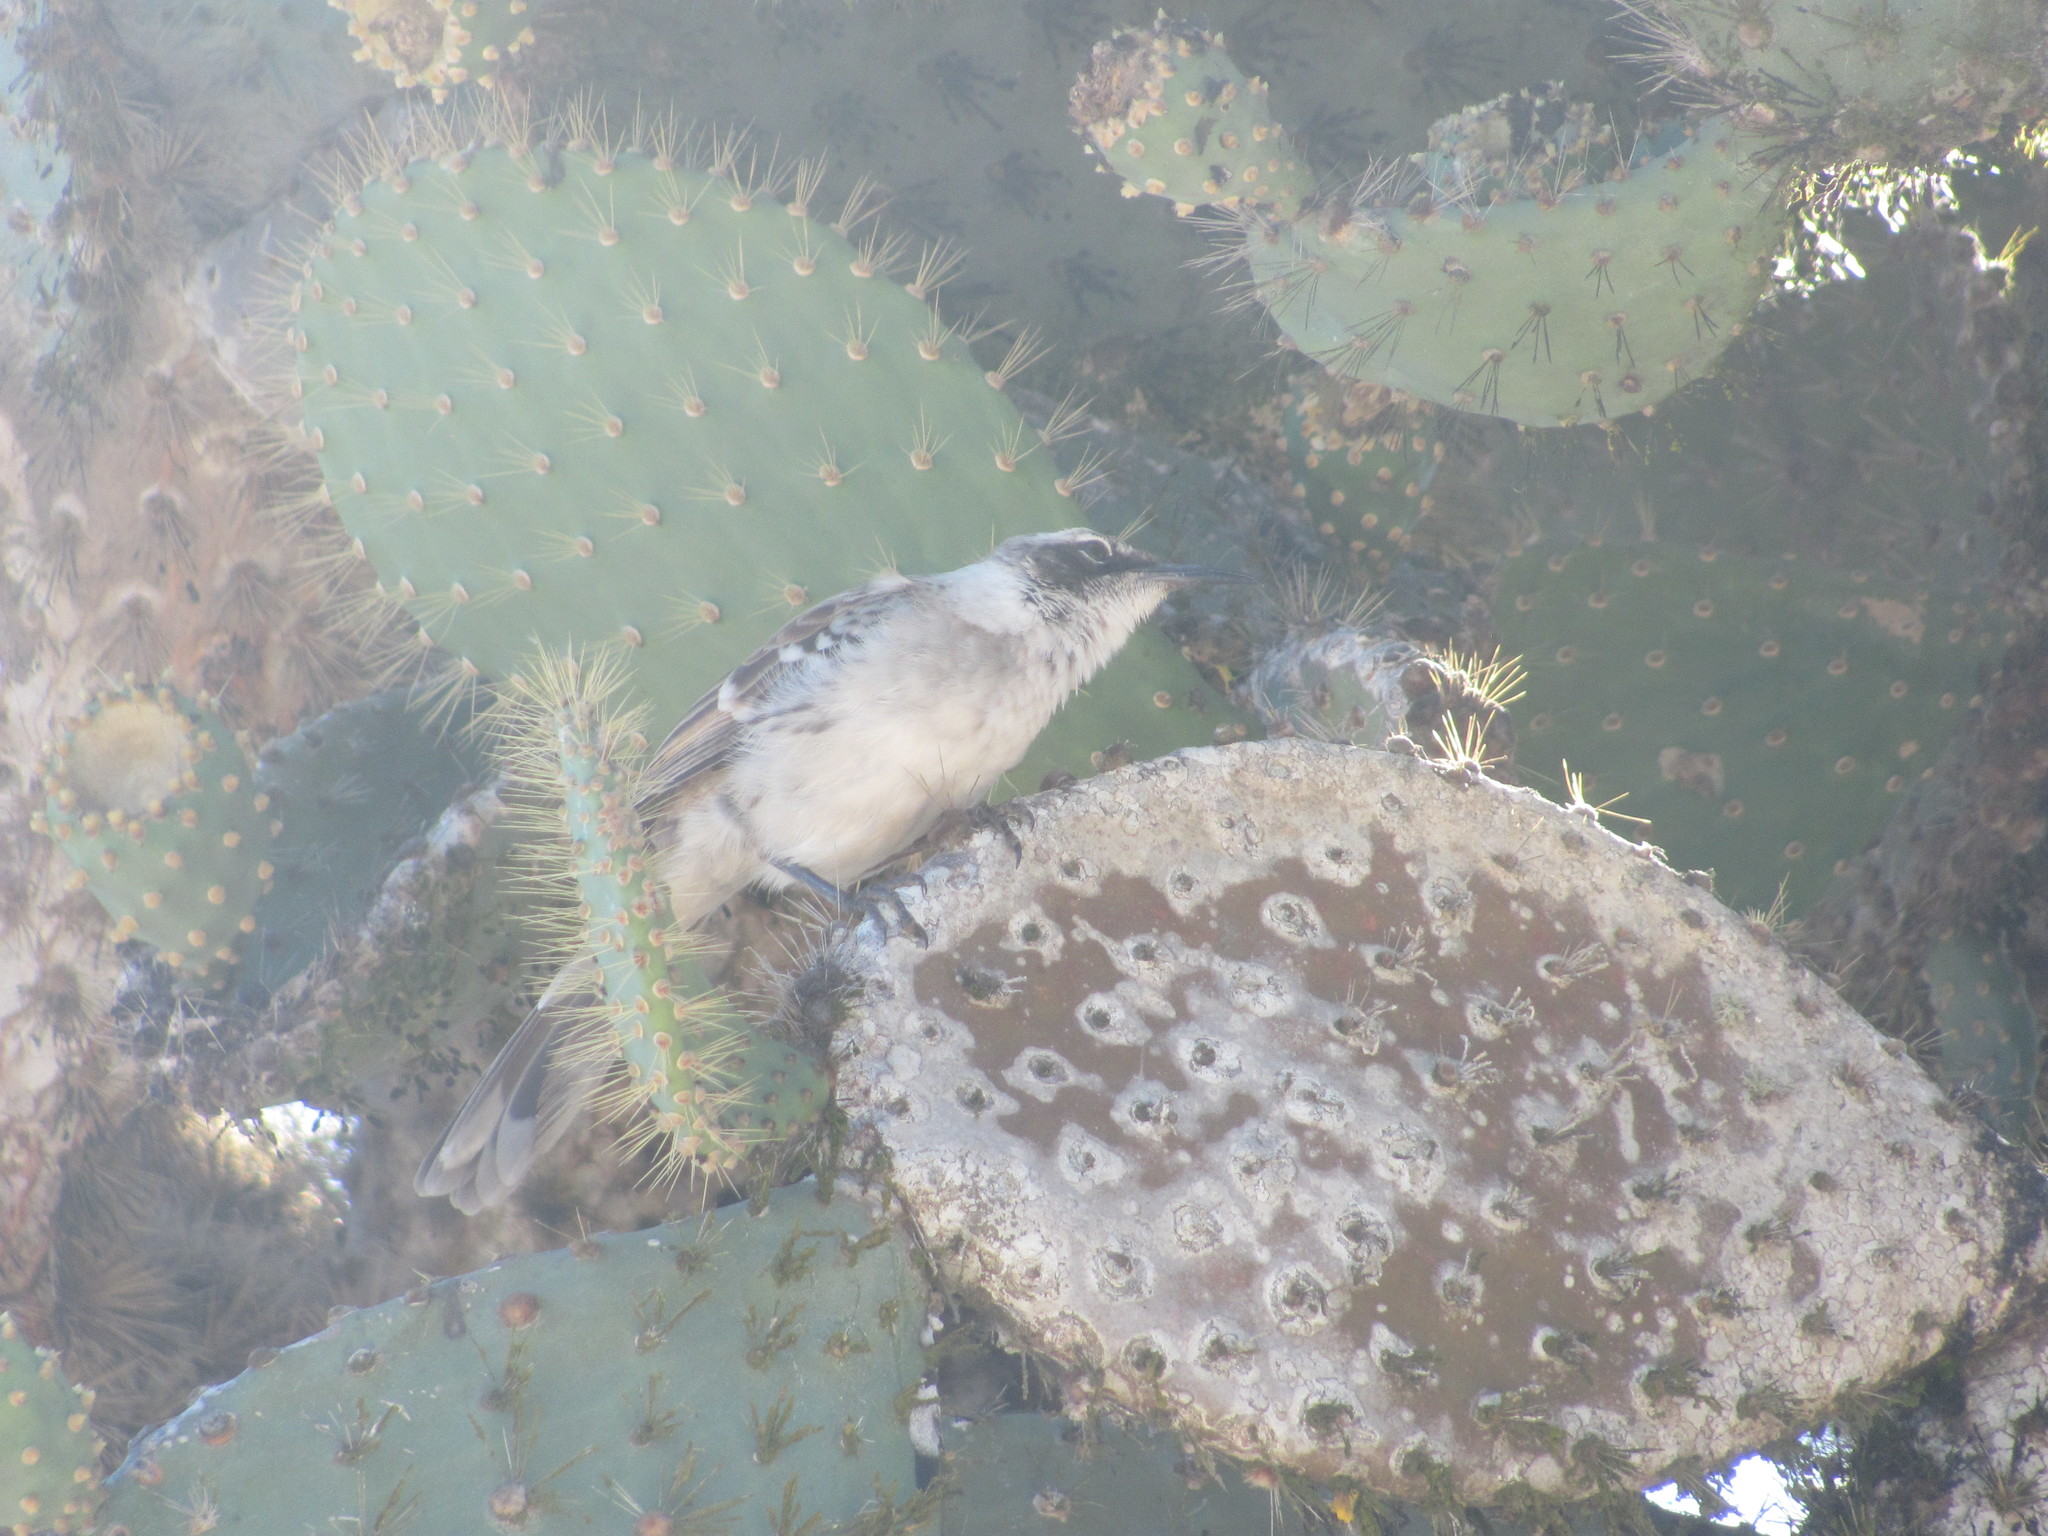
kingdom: Animalia
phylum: Chordata
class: Aves
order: Passeriformes
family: Mimidae
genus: Mimus
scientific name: Mimus parvulus
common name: Galapagos mockingbird
